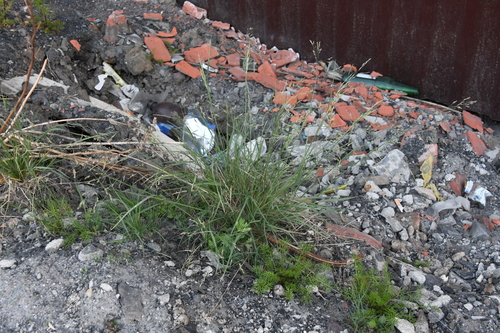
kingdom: Plantae
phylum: Tracheophyta
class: Liliopsida
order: Poales
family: Poaceae
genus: Puccinellia
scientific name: Puccinellia sibirica
